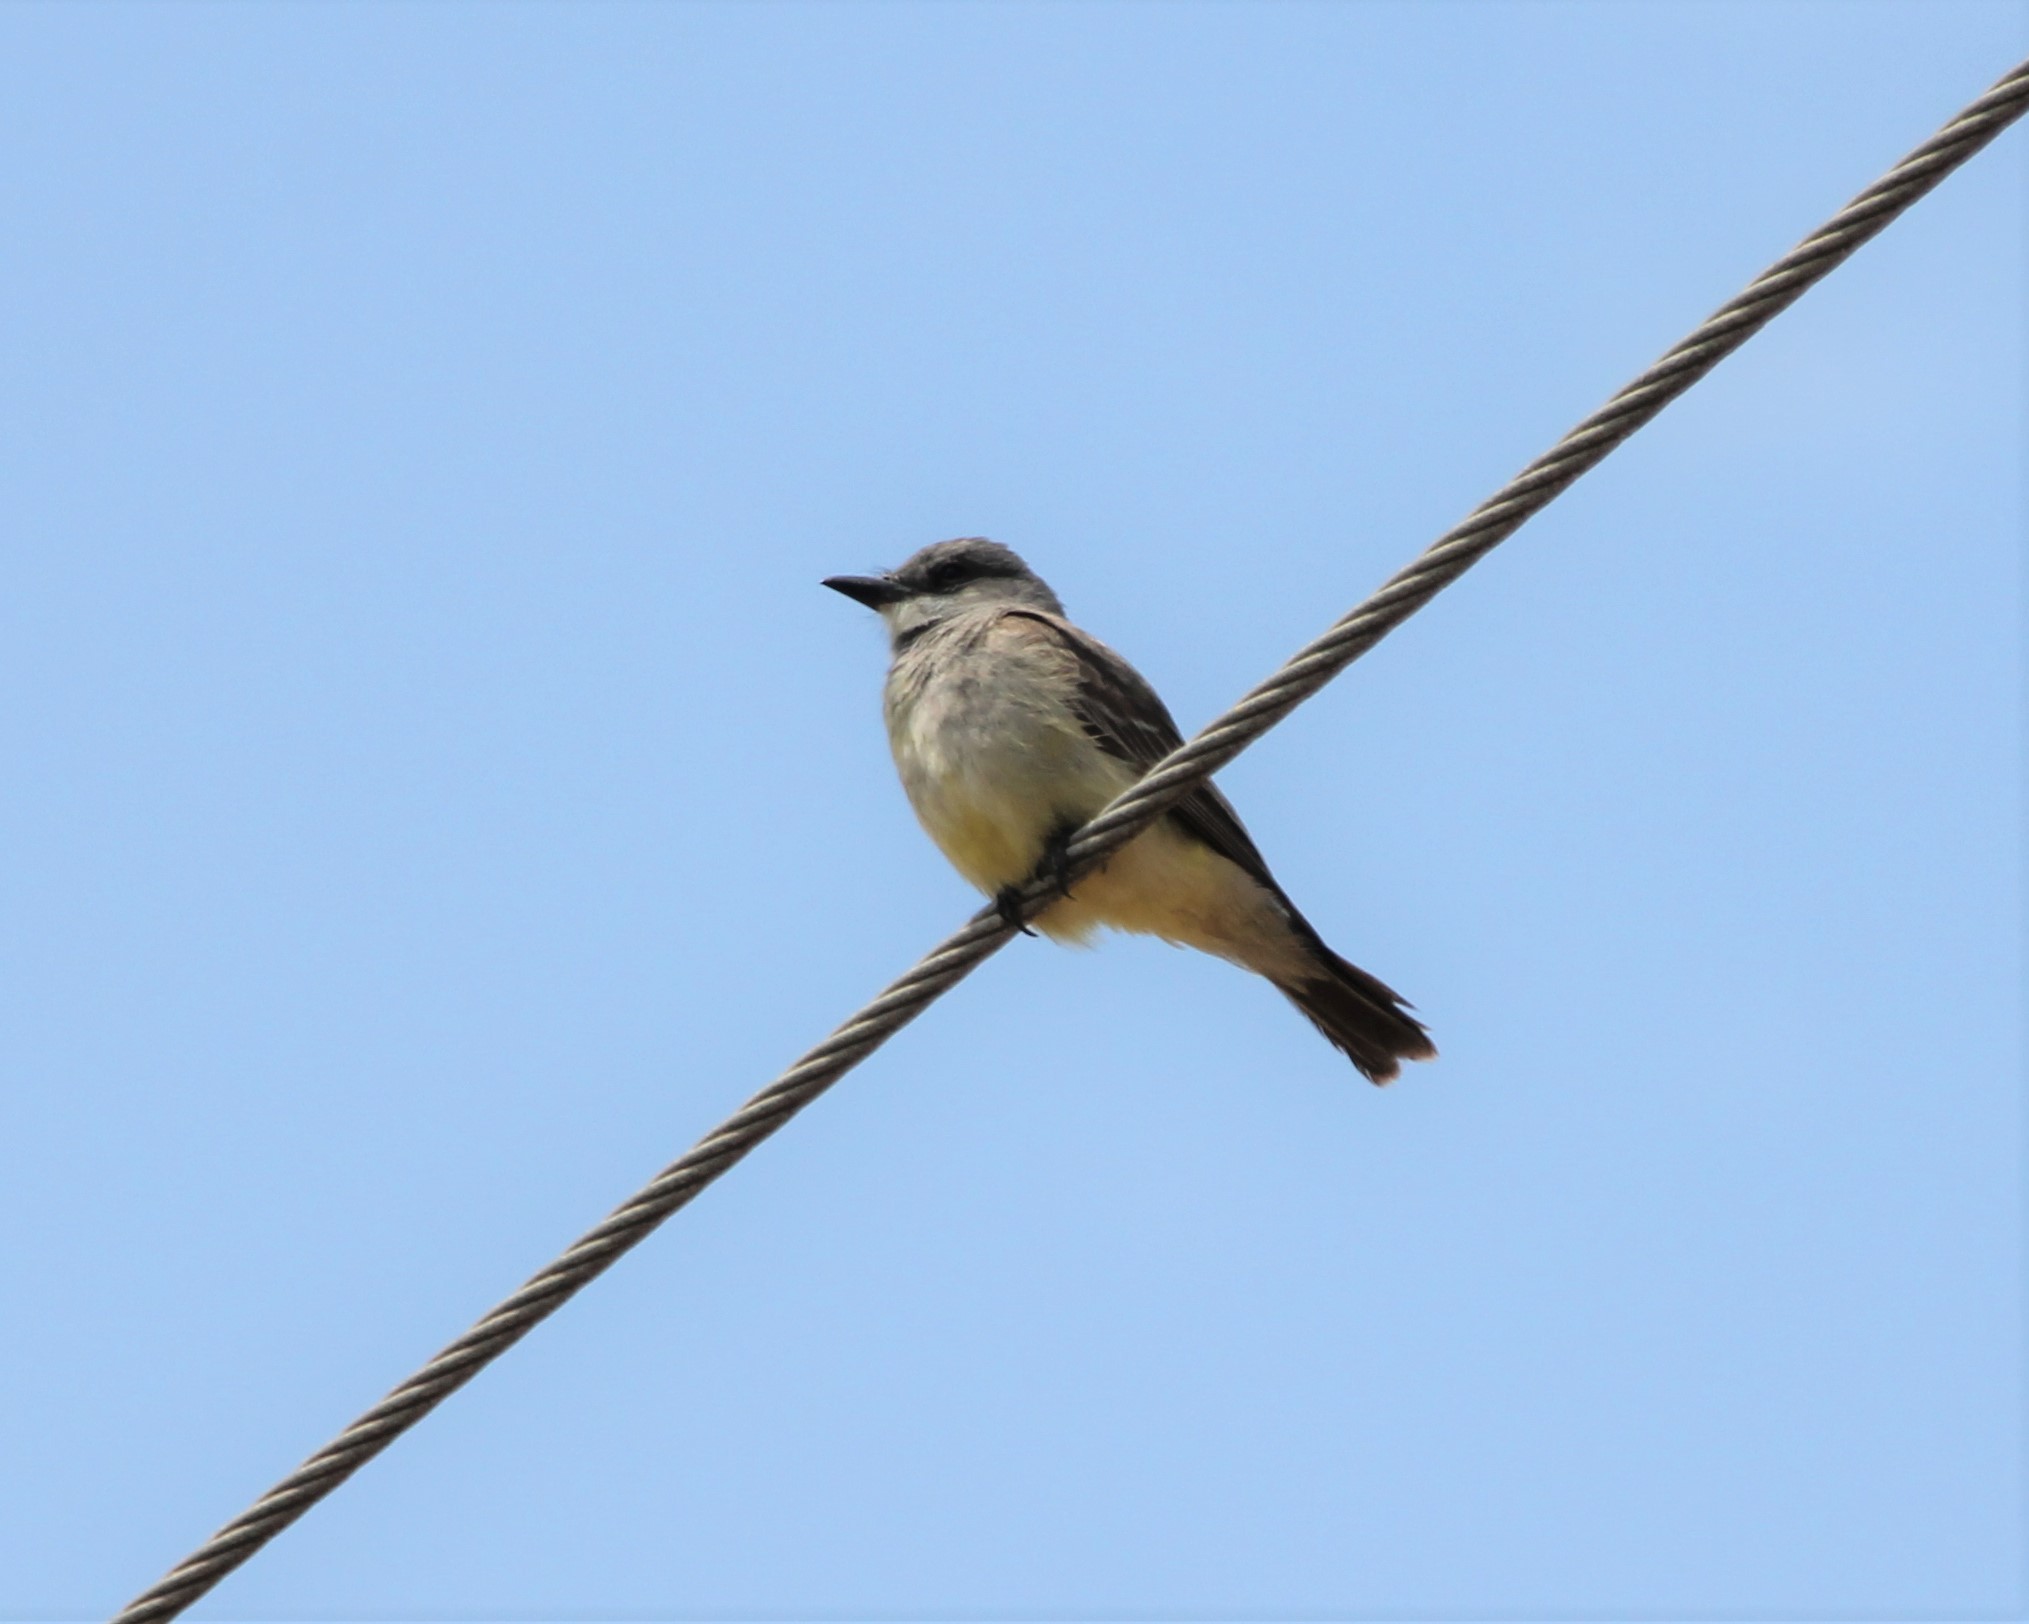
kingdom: Animalia
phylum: Chordata
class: Aves
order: Passeriformes
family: Tyrannidae
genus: Tyrannus
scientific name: Tyrannus vociferans
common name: Cassin's kingbird
